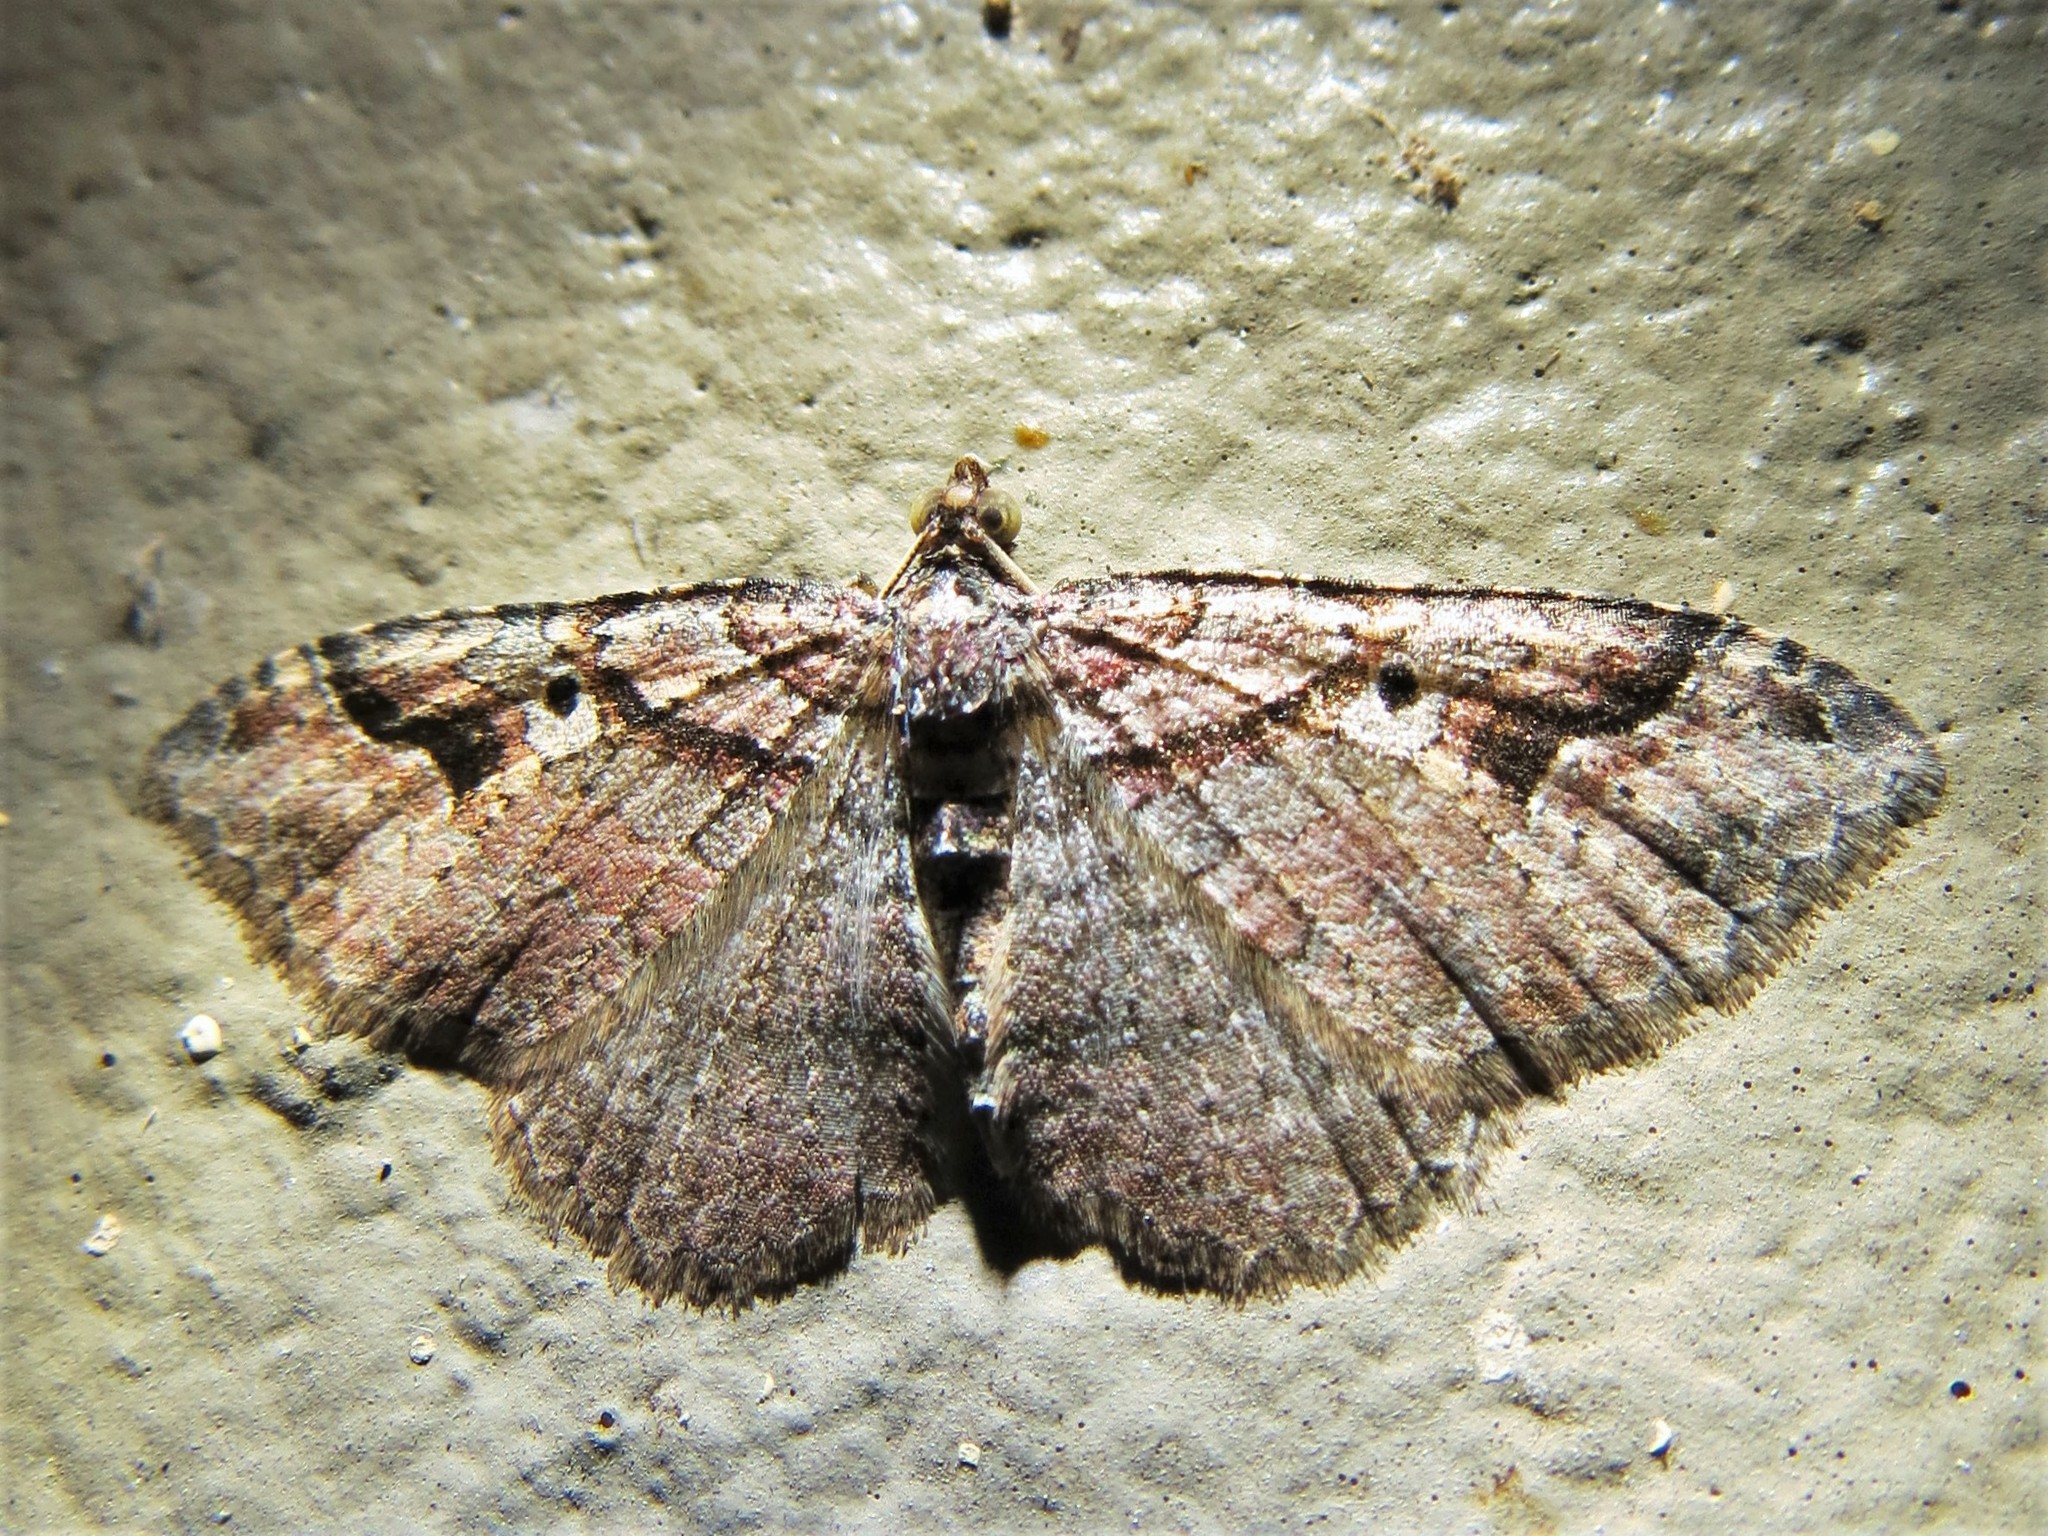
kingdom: Animalia
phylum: Arthropoda
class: Insecta
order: Lepidoptera
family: Geometridae
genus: Costaconvexa
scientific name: Costaconvexa centrostrigaria
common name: Bent-line carpet
